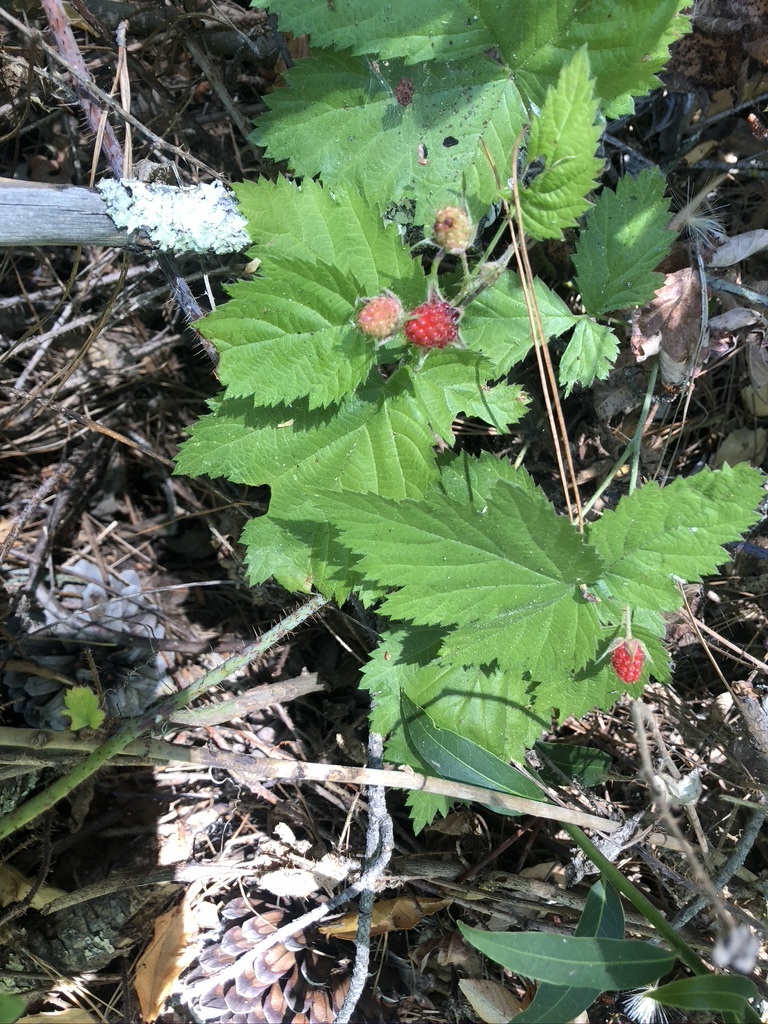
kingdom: Plantae
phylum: Tracheophyta
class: Magnoliopsida
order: Rosales
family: Rosaceae
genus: Rubus
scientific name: Rubus ursinus
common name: Pacific blackberry
